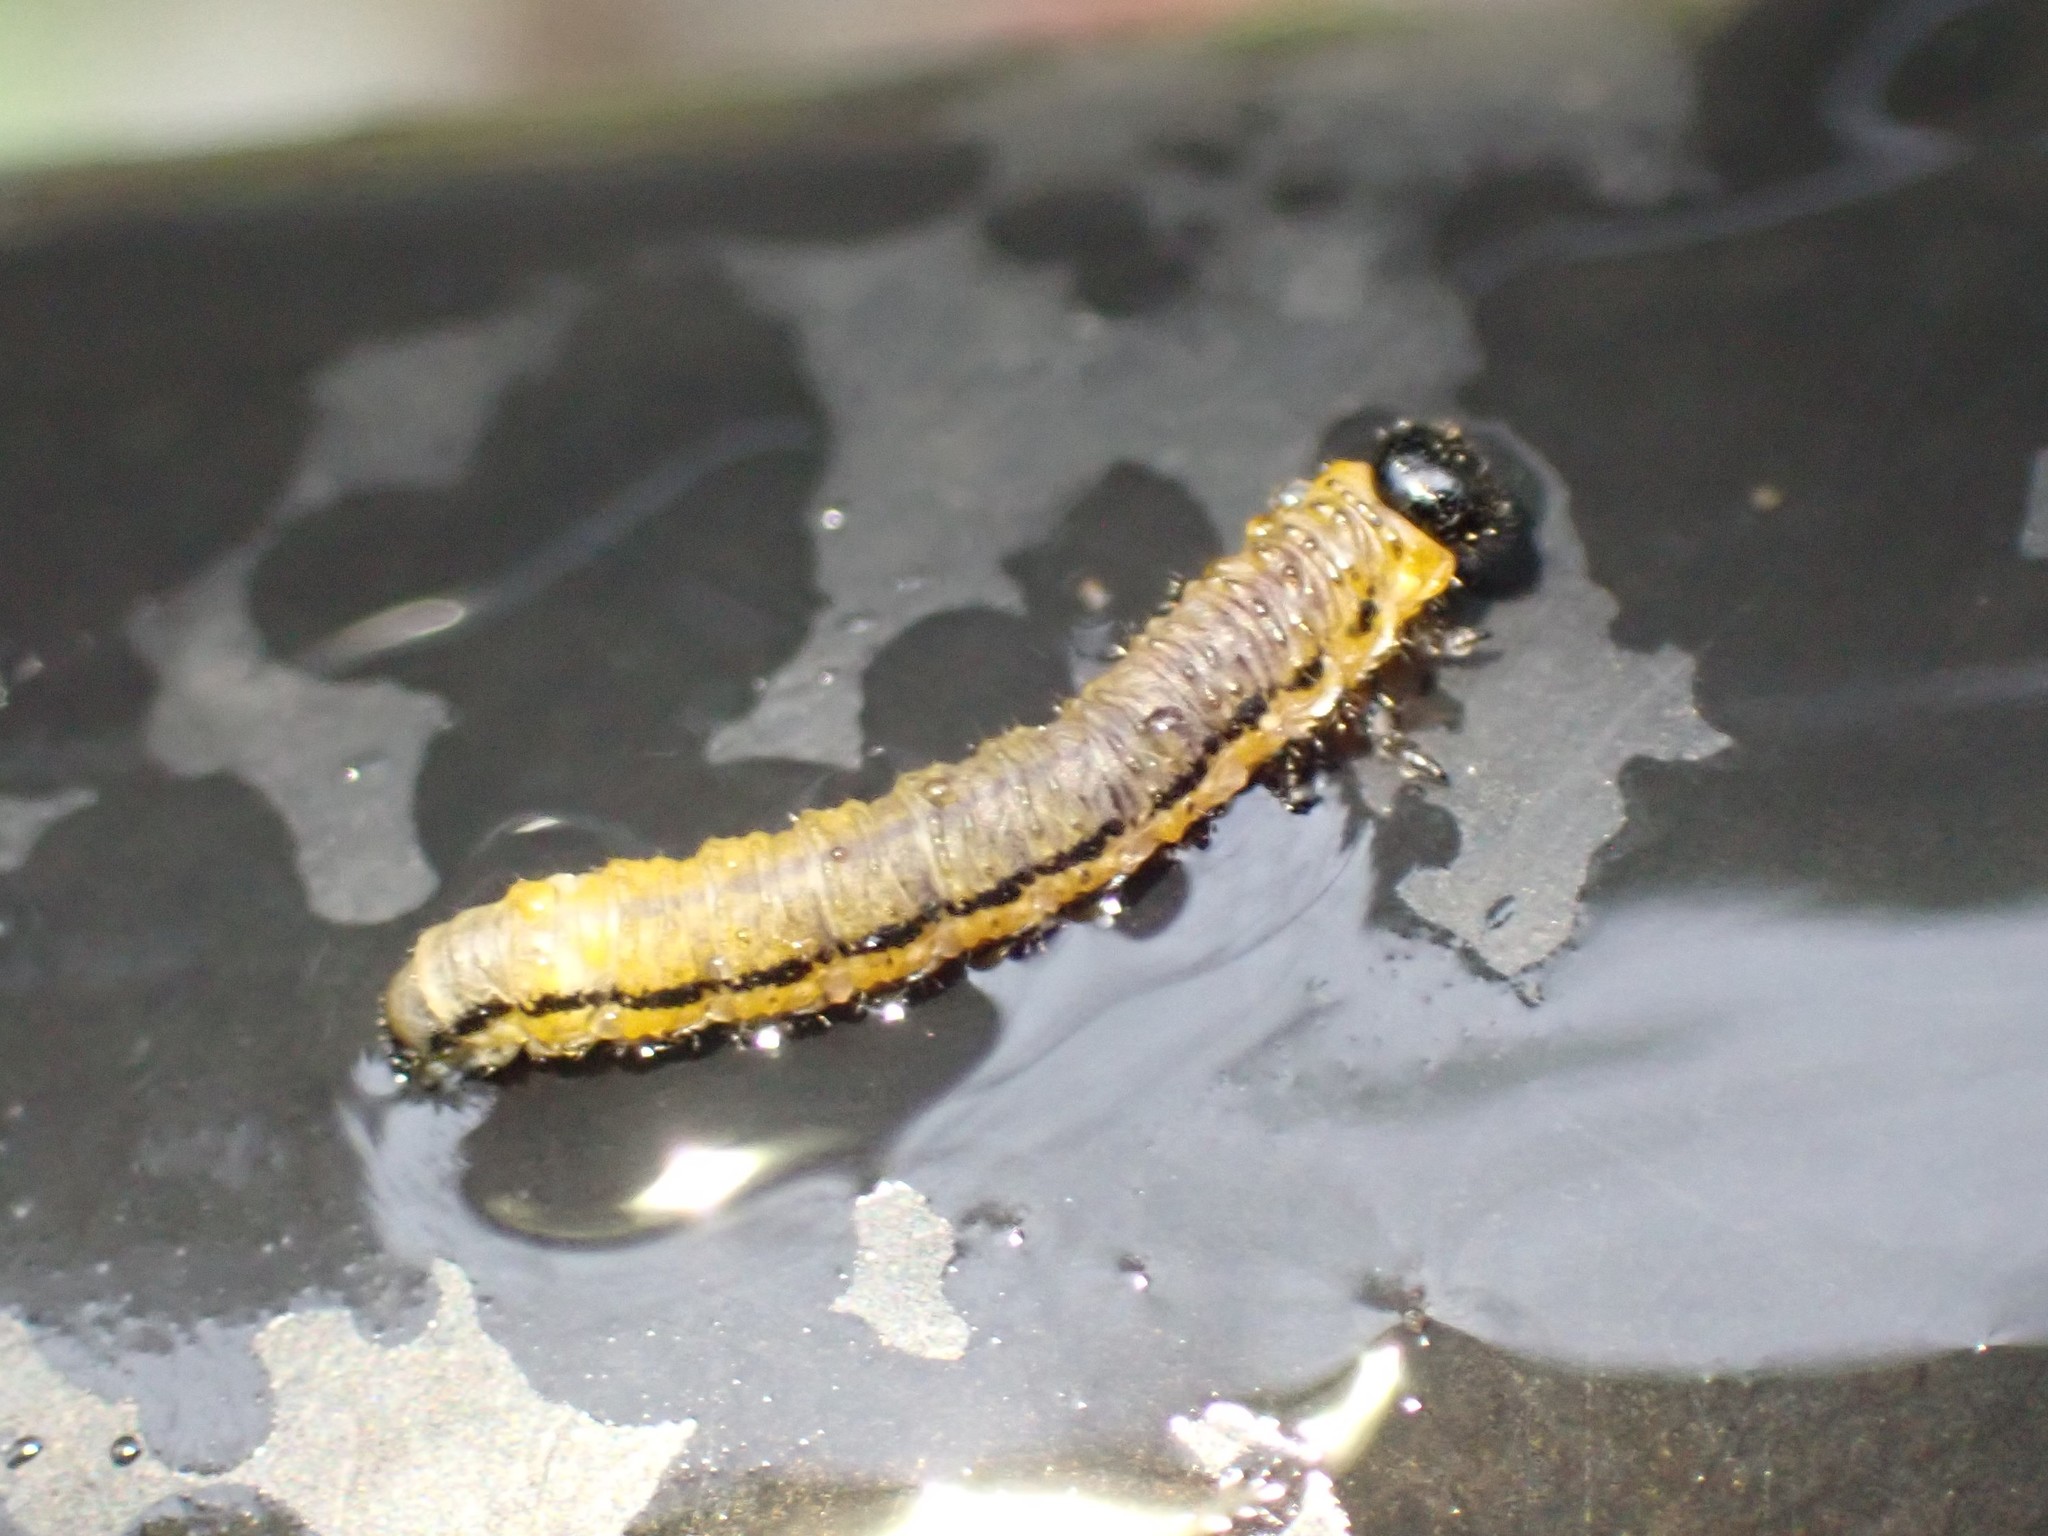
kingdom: Animalia
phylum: Arthropoda
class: Insecta
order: Hymenoptera
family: Tenthredinidae
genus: Hemichroa
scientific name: Hemichroa crocea
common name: Striped alder sawfly
